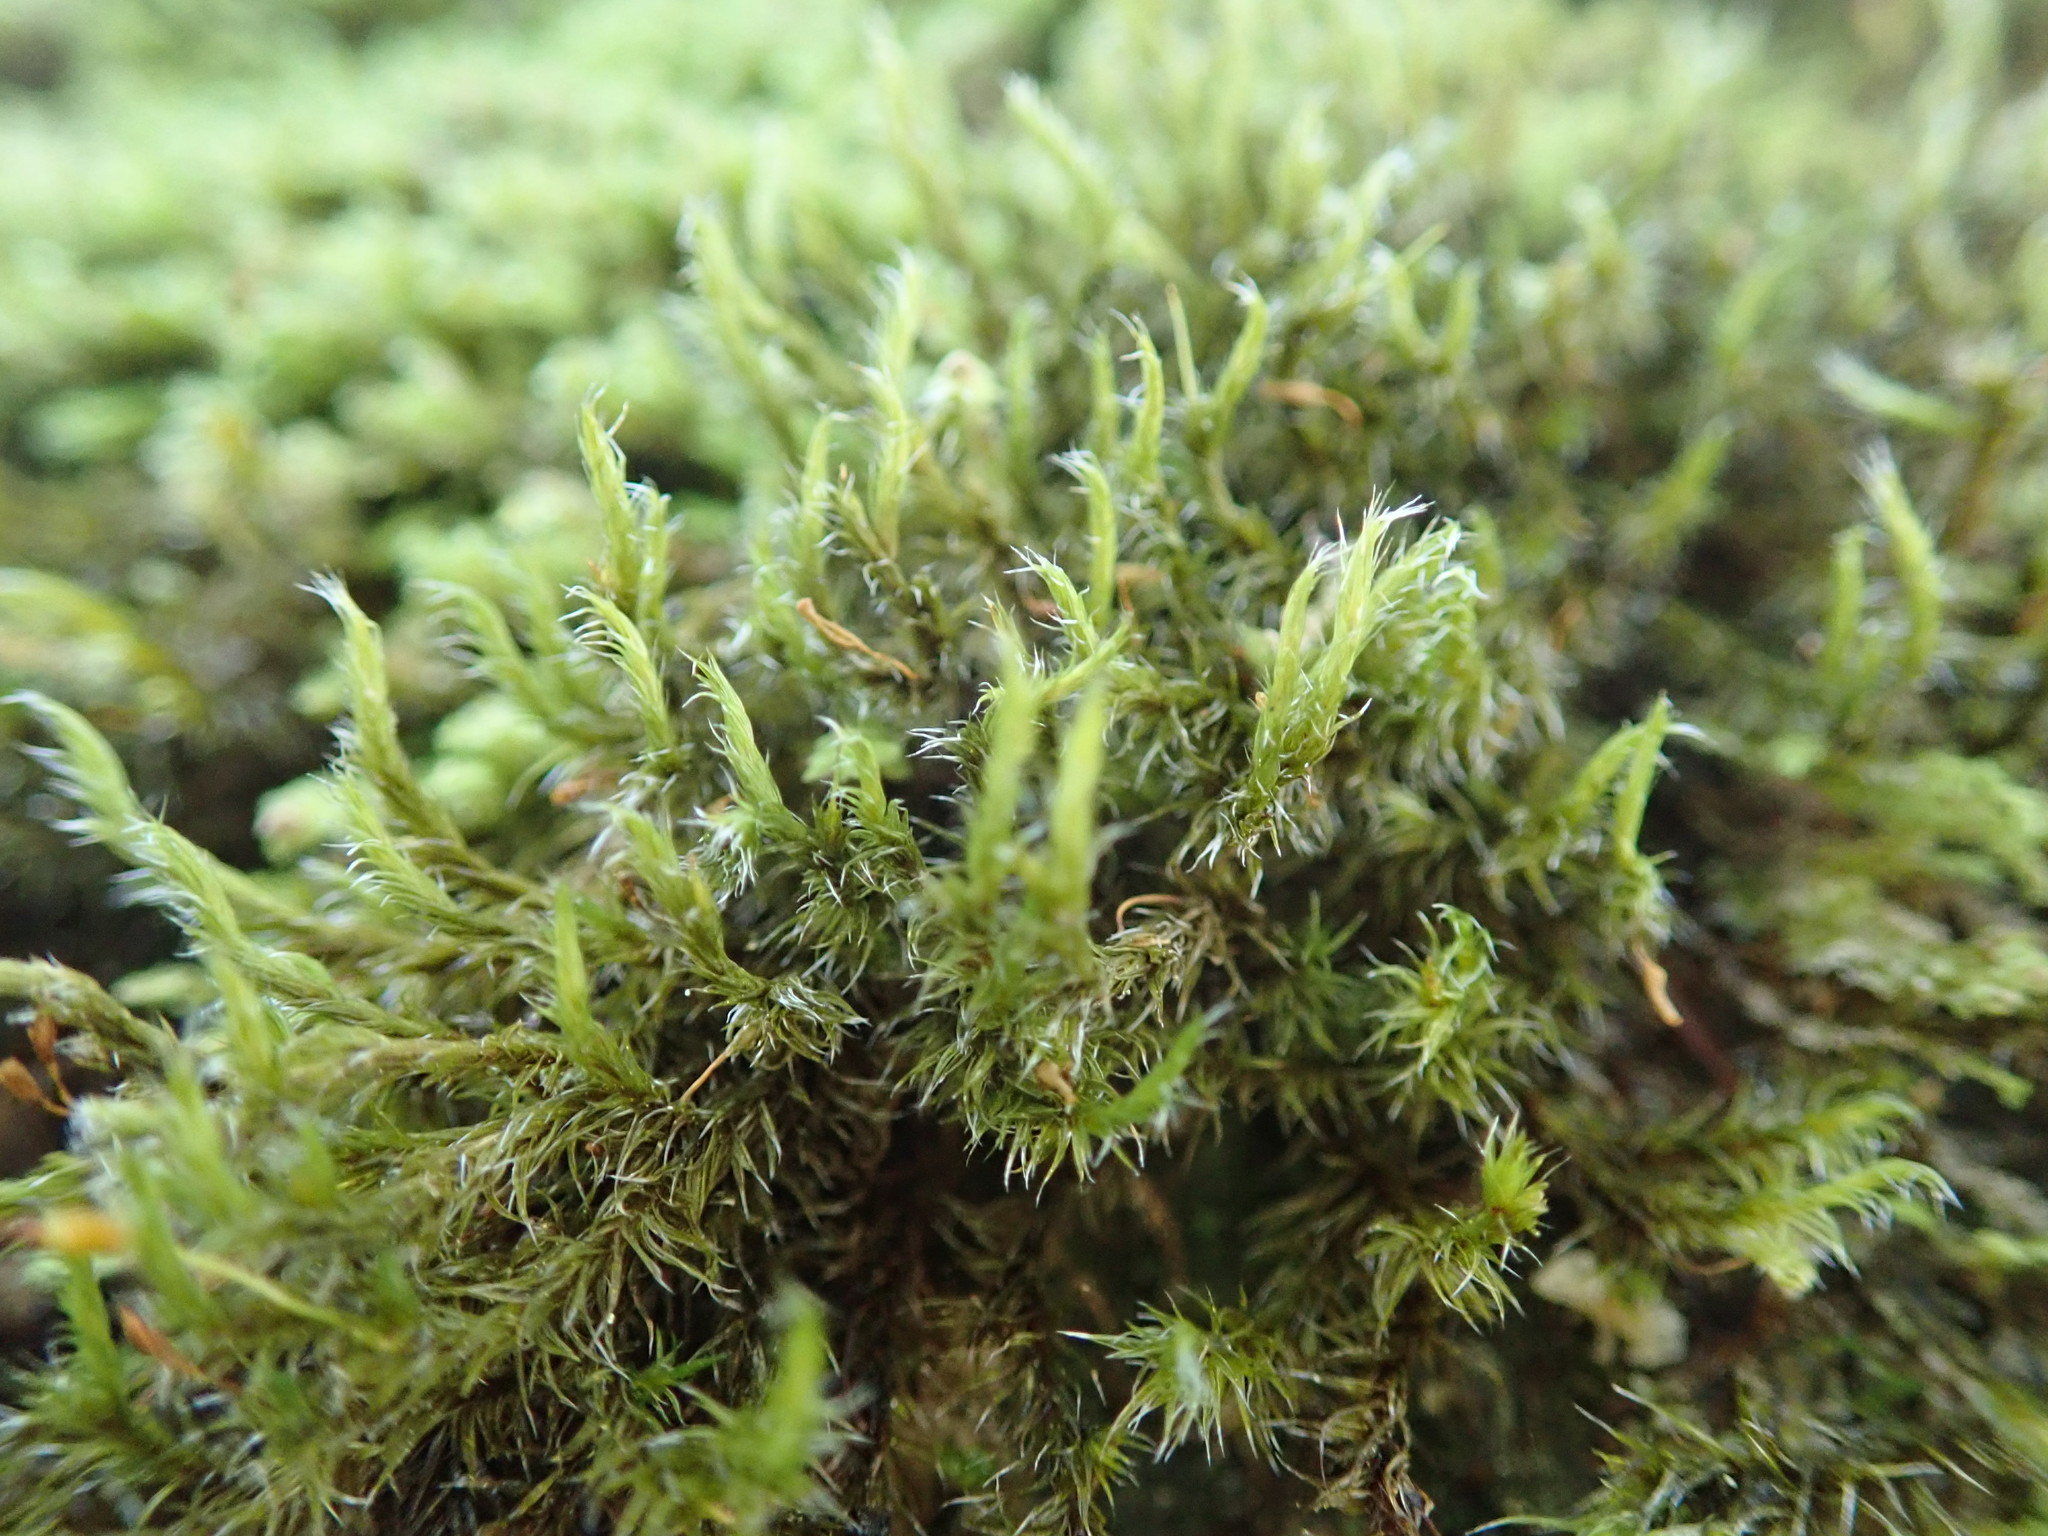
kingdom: Plantae
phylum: Bryophyta
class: Bryopsida
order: Grimmiales
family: Grimmiaceae
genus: Bucklandiella
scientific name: Bucklandiella heterosticha
